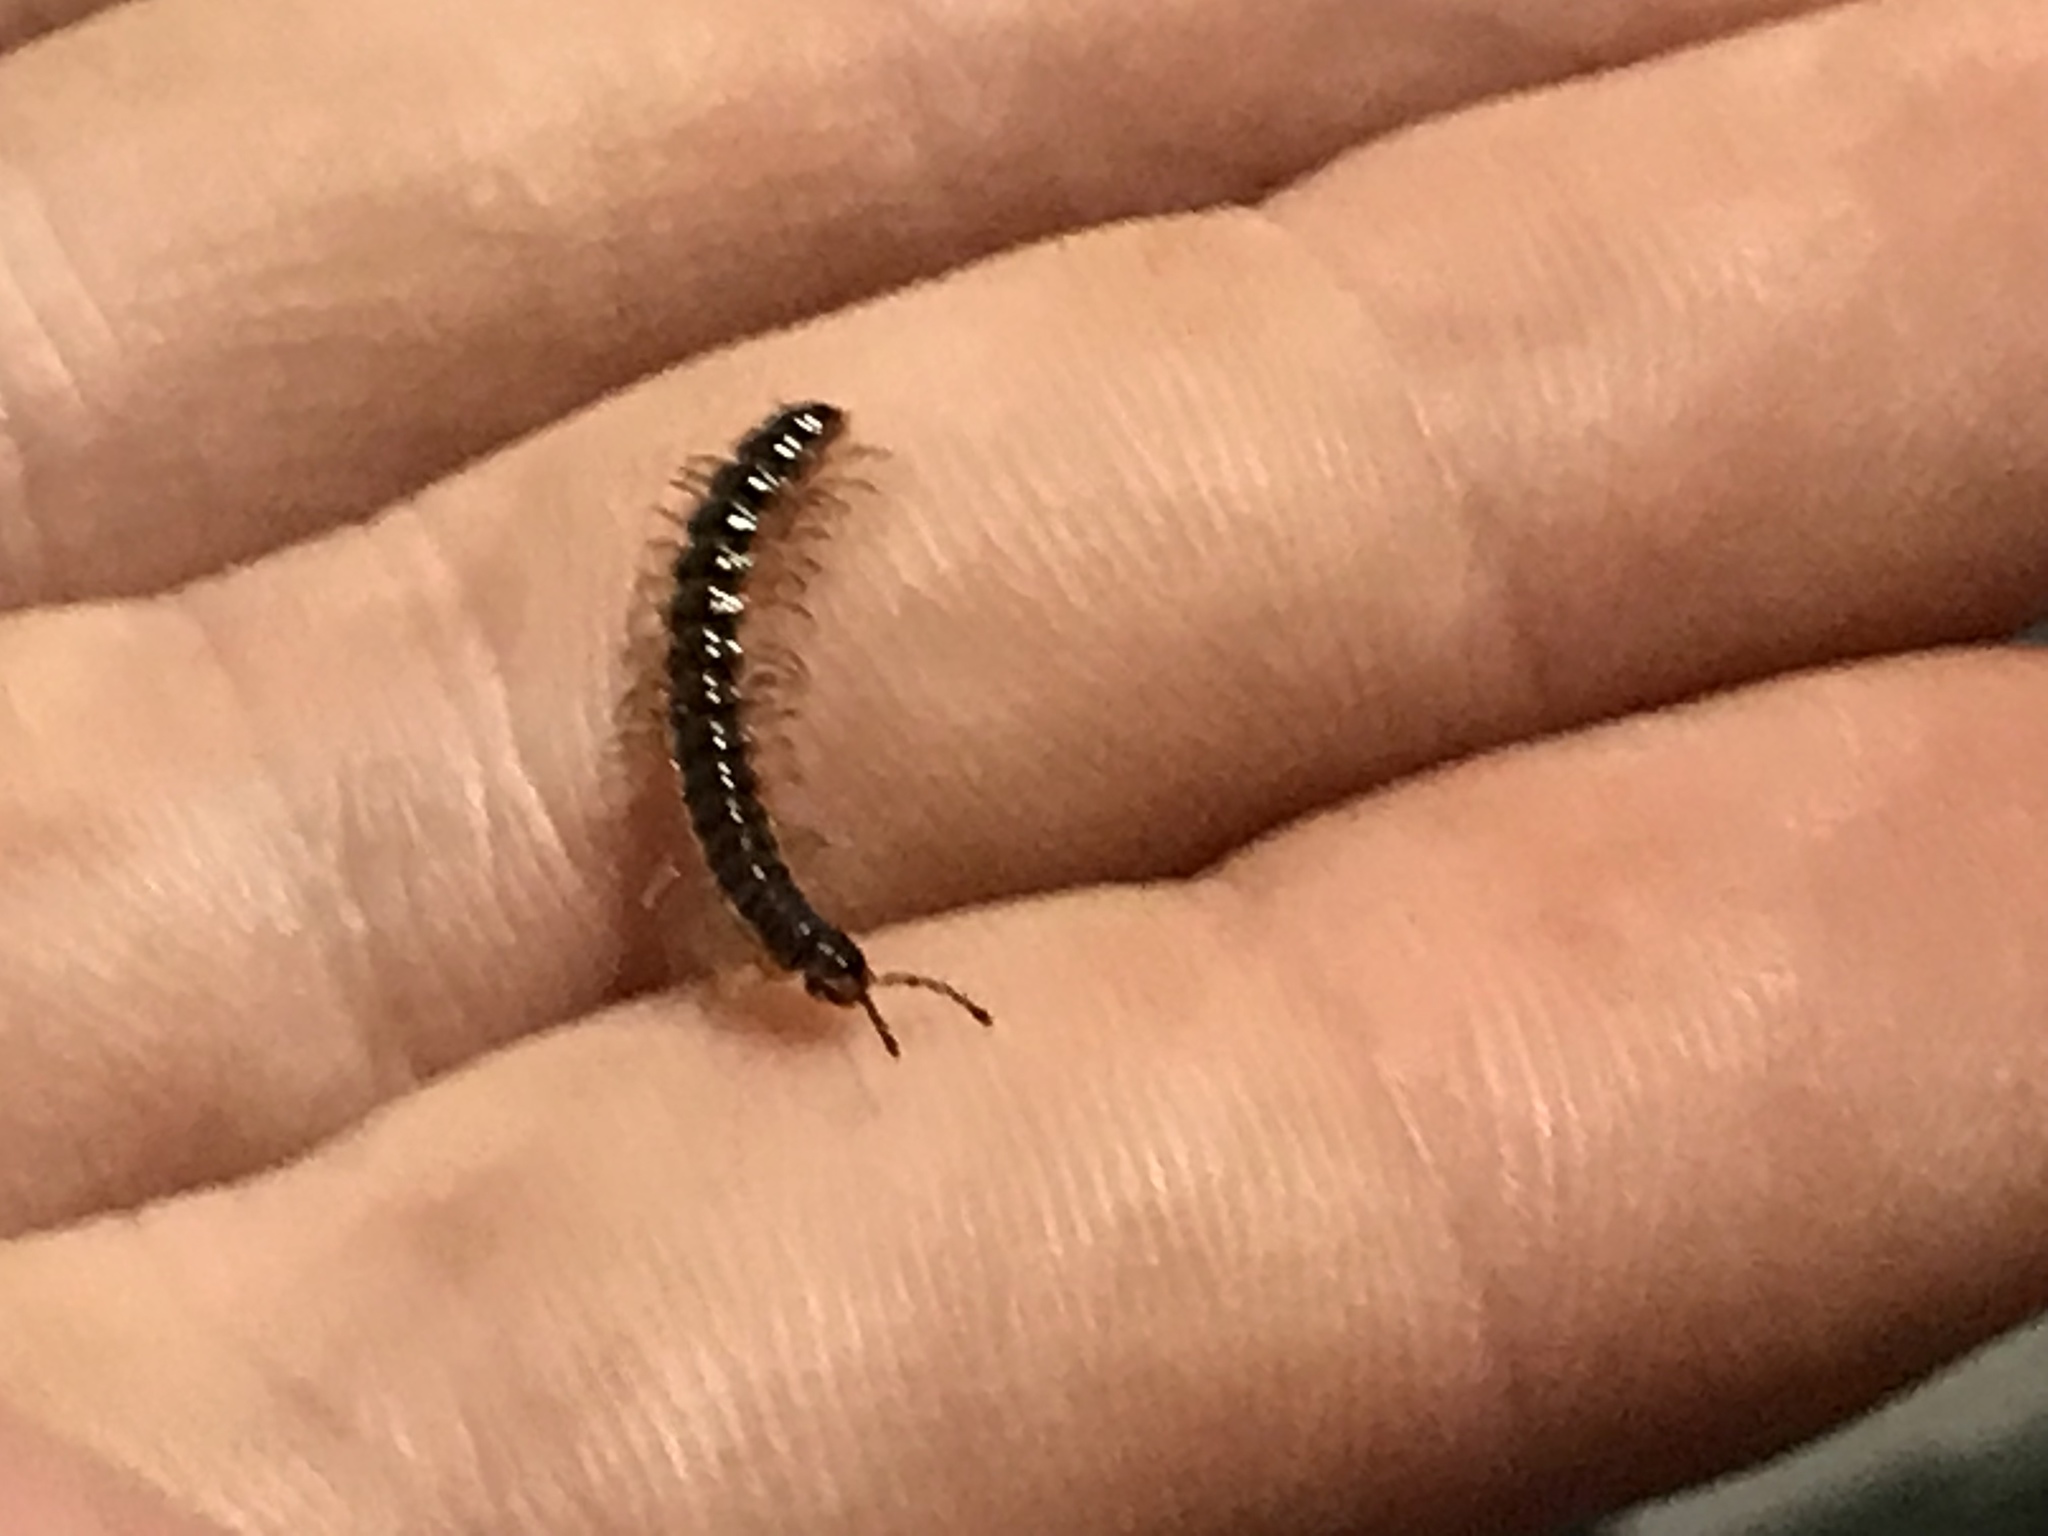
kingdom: Animalia
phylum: Arthropoda
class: Diplopoda
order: Polydesmida
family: Paradoxosomatidae
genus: Oxidus
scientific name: Oxidus gracilis
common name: Greenhouse millipede
